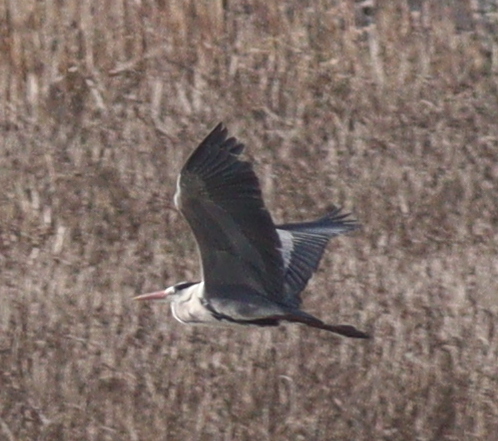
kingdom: Animalia
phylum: Chordata
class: Aves
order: Pelecaniformes
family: Ardeidae
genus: Ardea
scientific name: Ardea cinerea
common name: Grey heron
